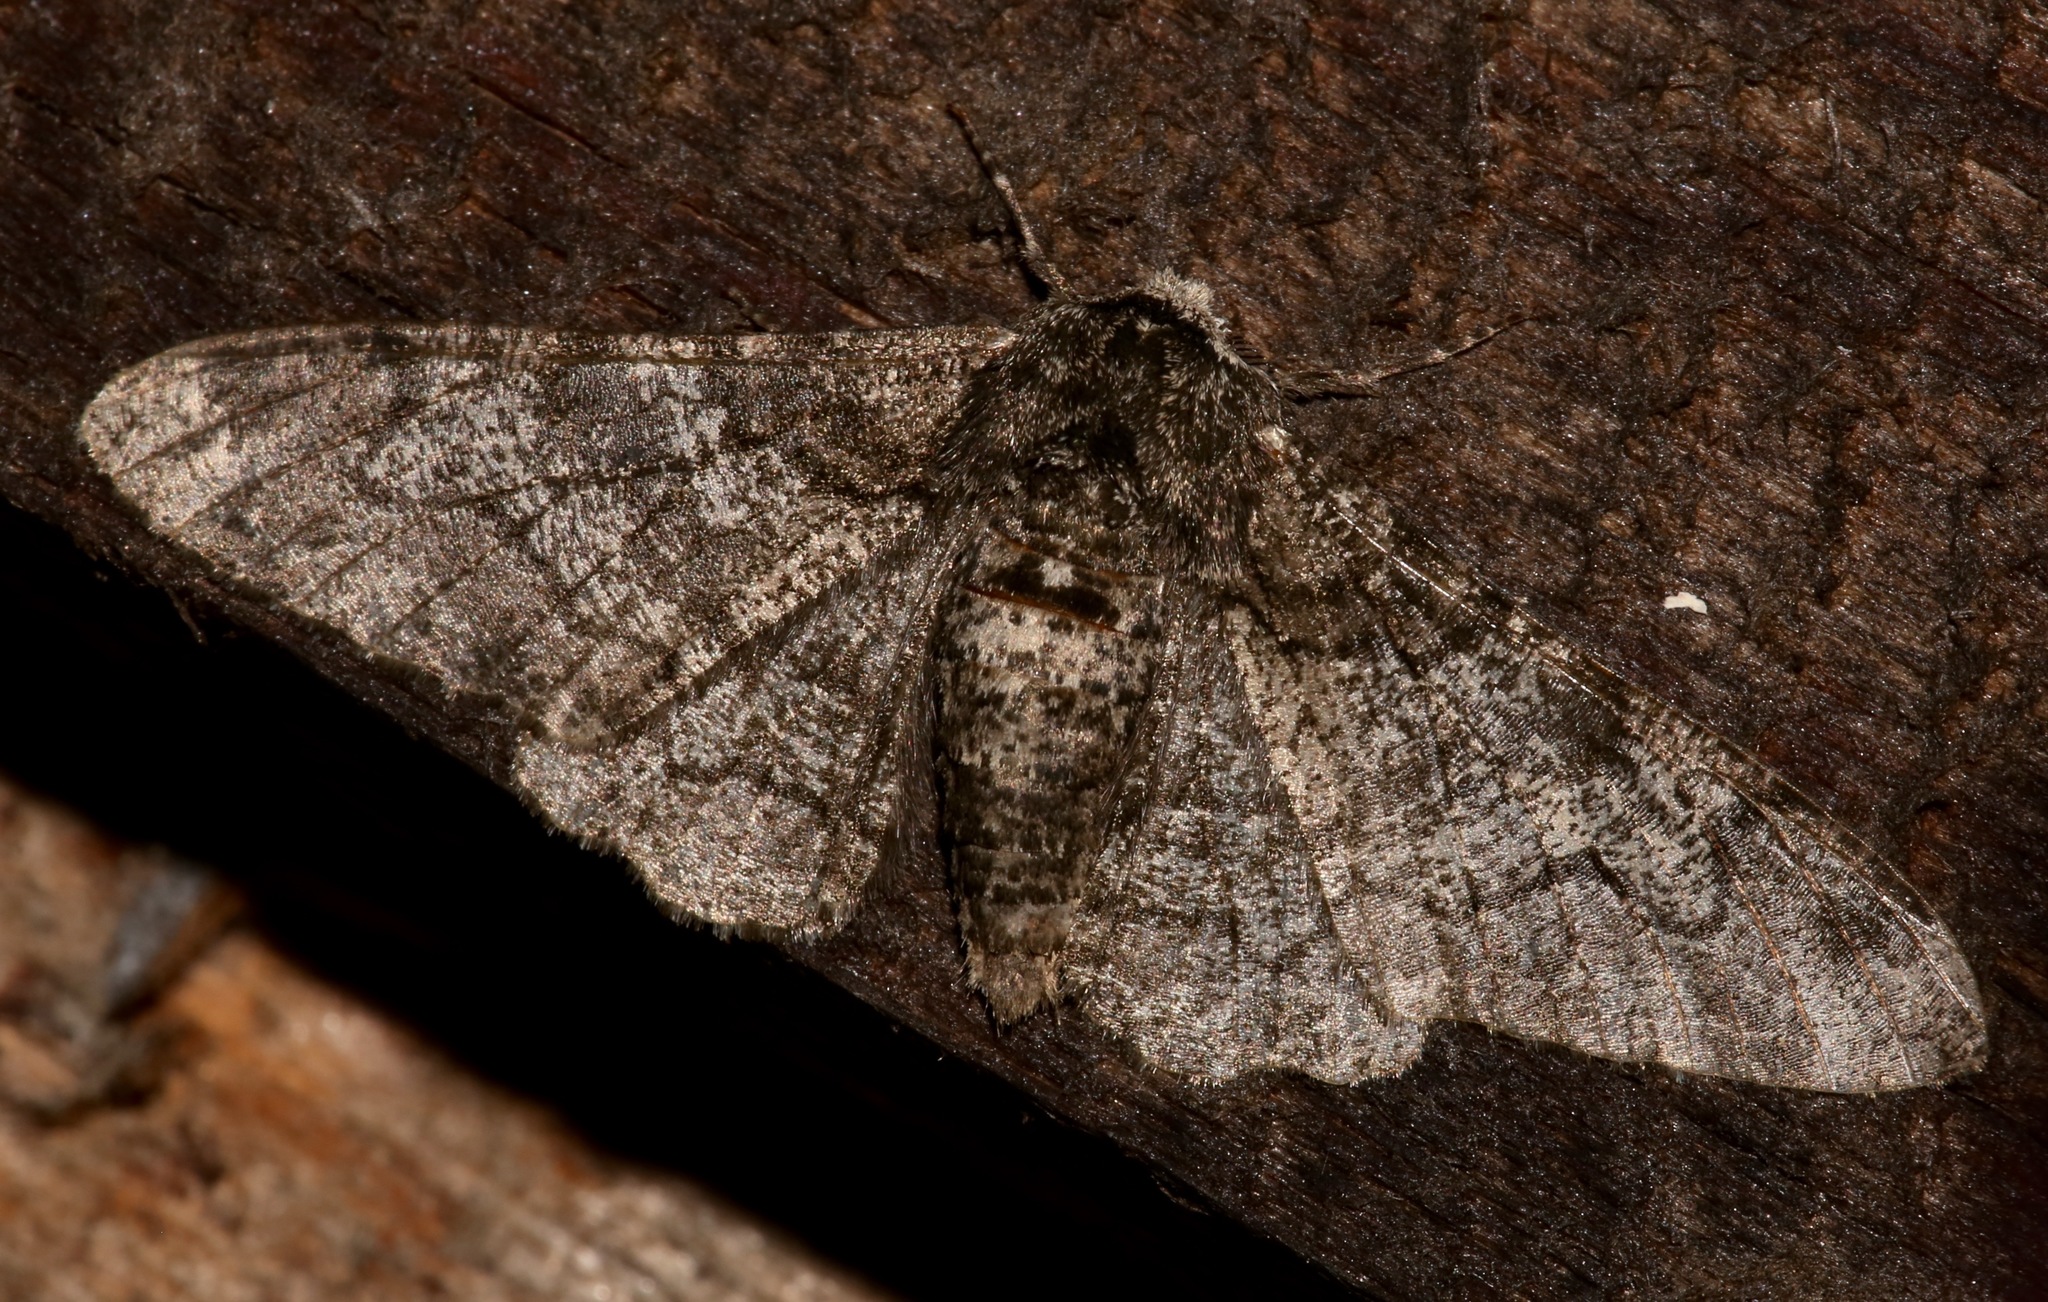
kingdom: Animalia
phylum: Arthropoda
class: Insecta
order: Lepidoptera
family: Geometridae
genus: Biston
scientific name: Biston betularia
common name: Peppered moth
